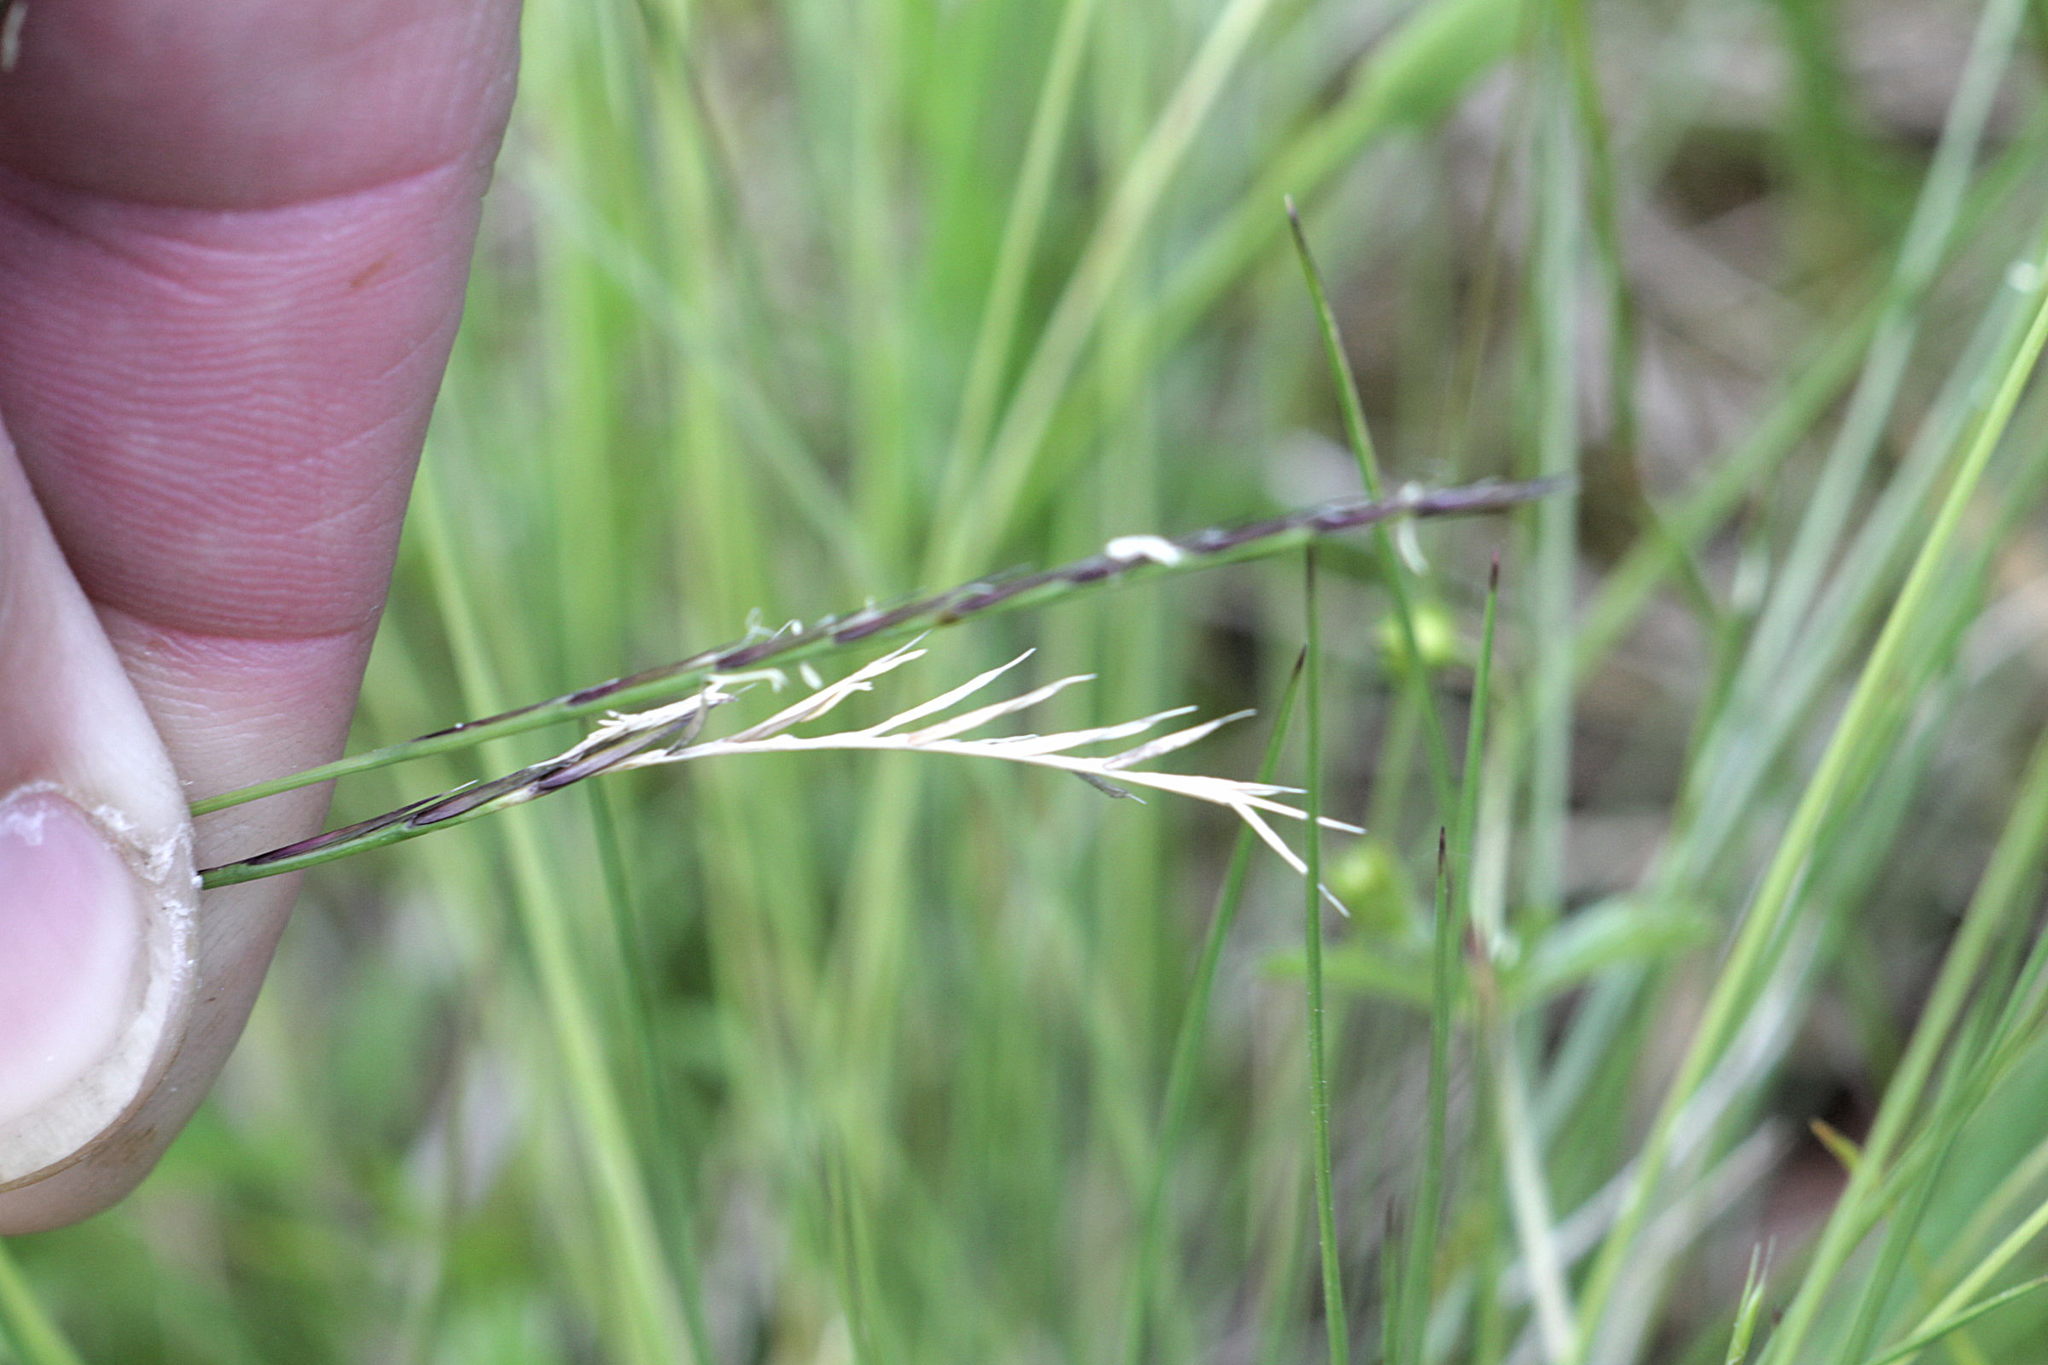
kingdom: Plantae
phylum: Tracheophyta
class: Liliopsida
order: Poales
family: Poaceae
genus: Nardus
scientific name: Nardus stricta
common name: Mat-grass
